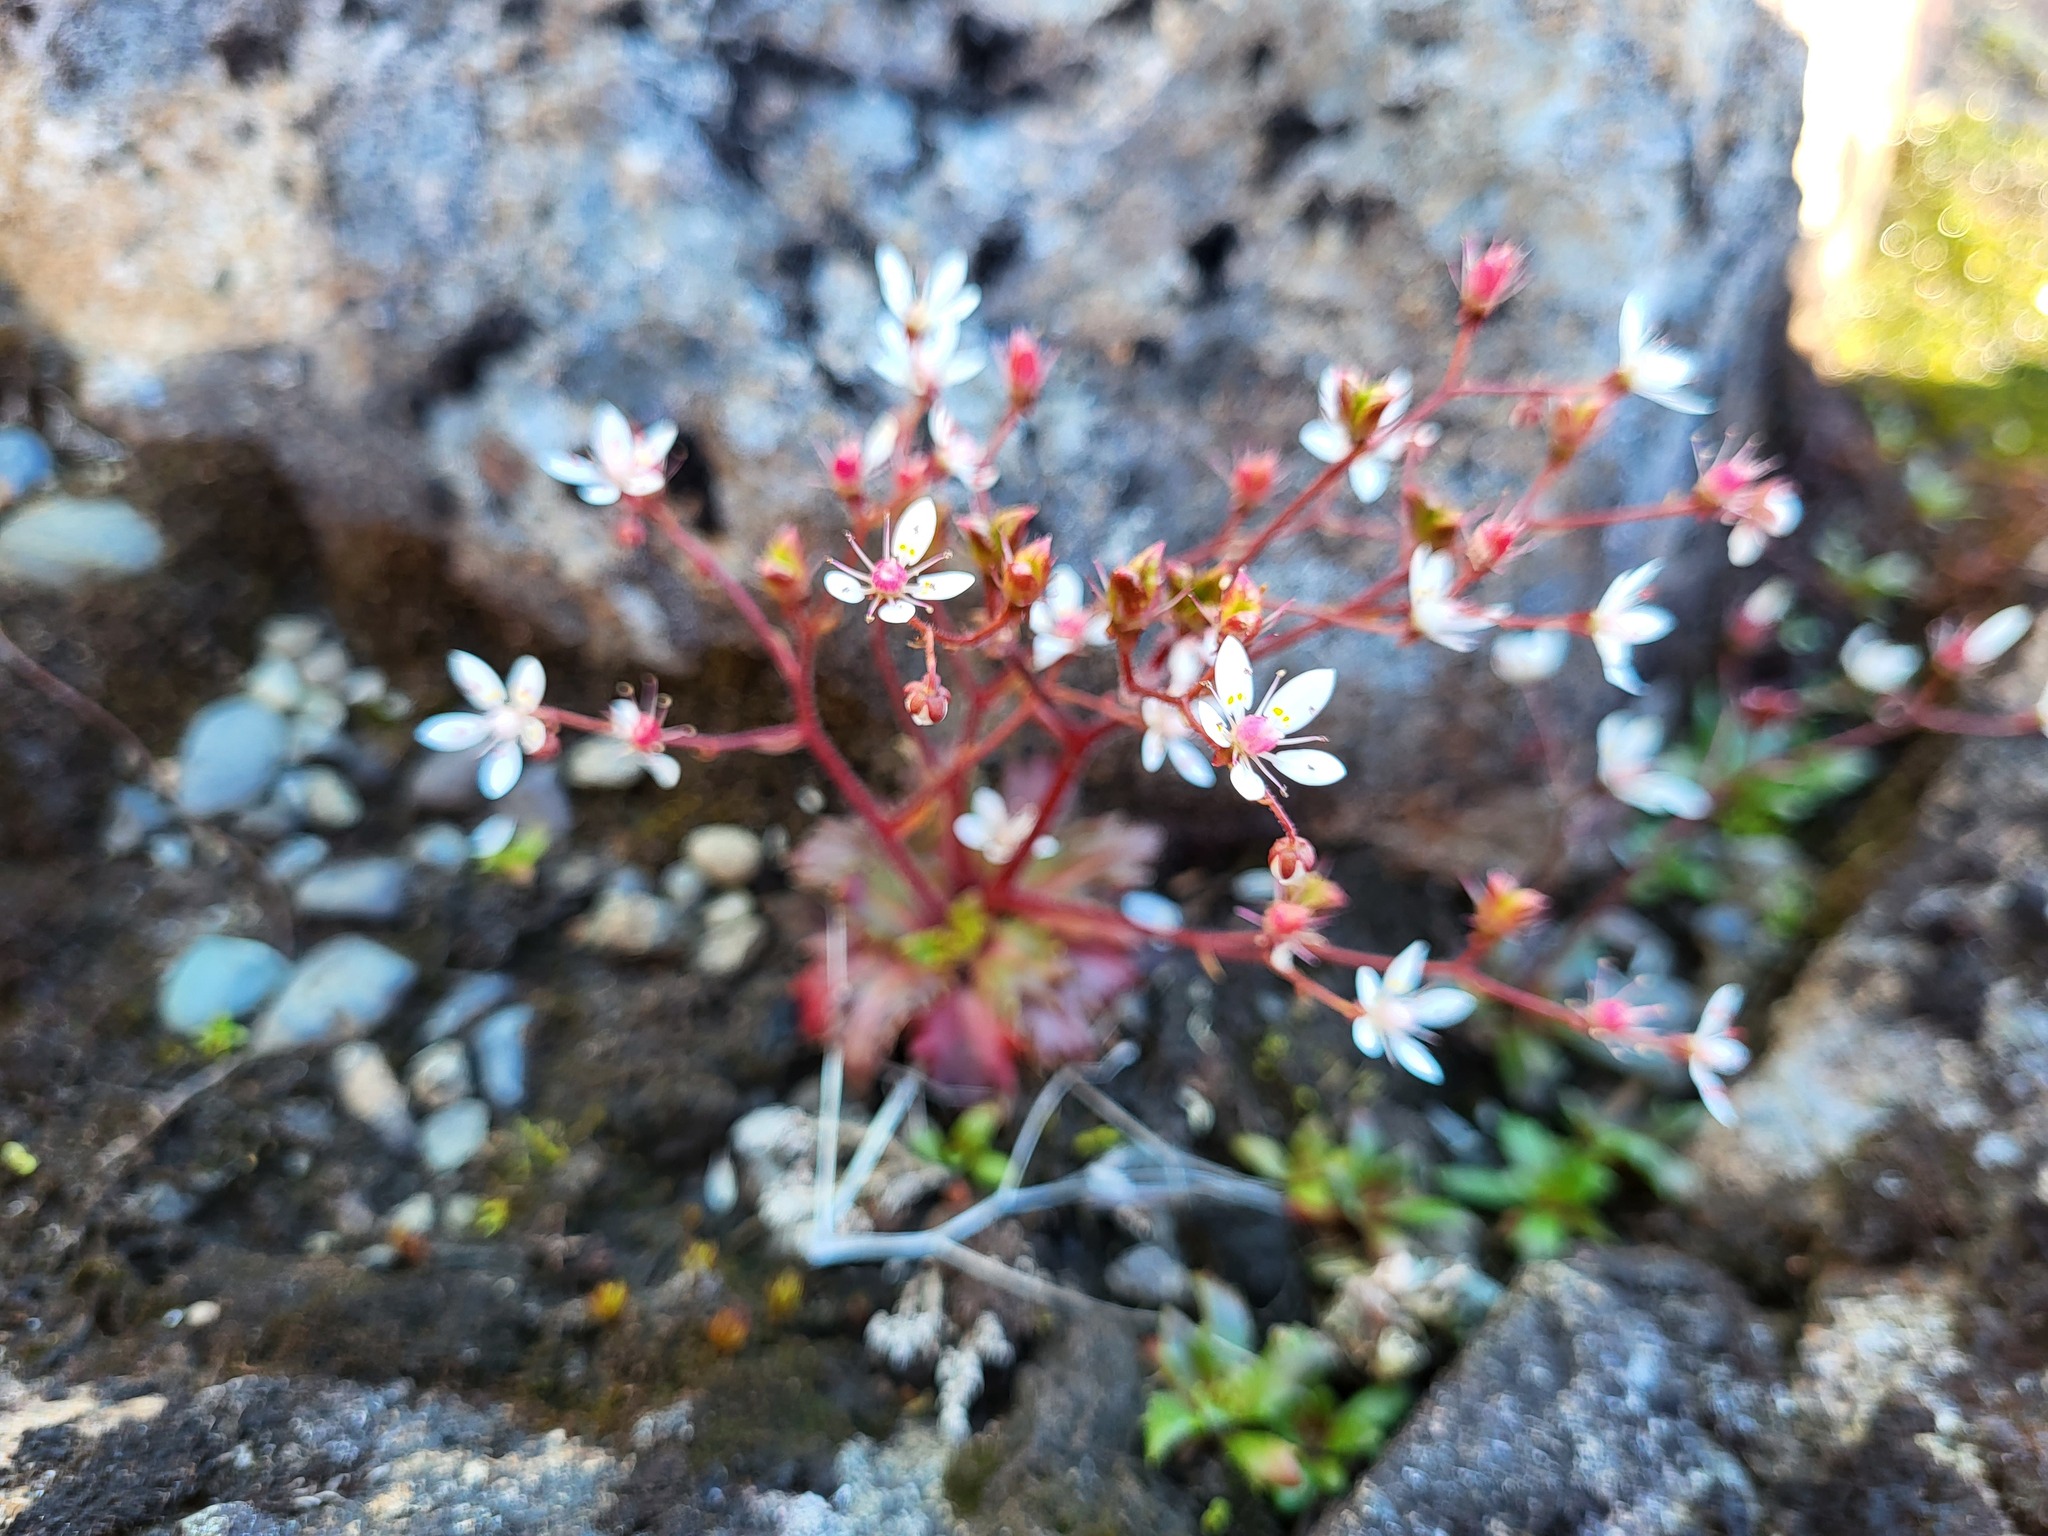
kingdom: Plantae
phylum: Tracheophyta
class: Magnoliopsida
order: Saxifragales
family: Saxifragaceae
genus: Micranthes
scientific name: Micranthes ferruginea
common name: Rusty saxifrage
